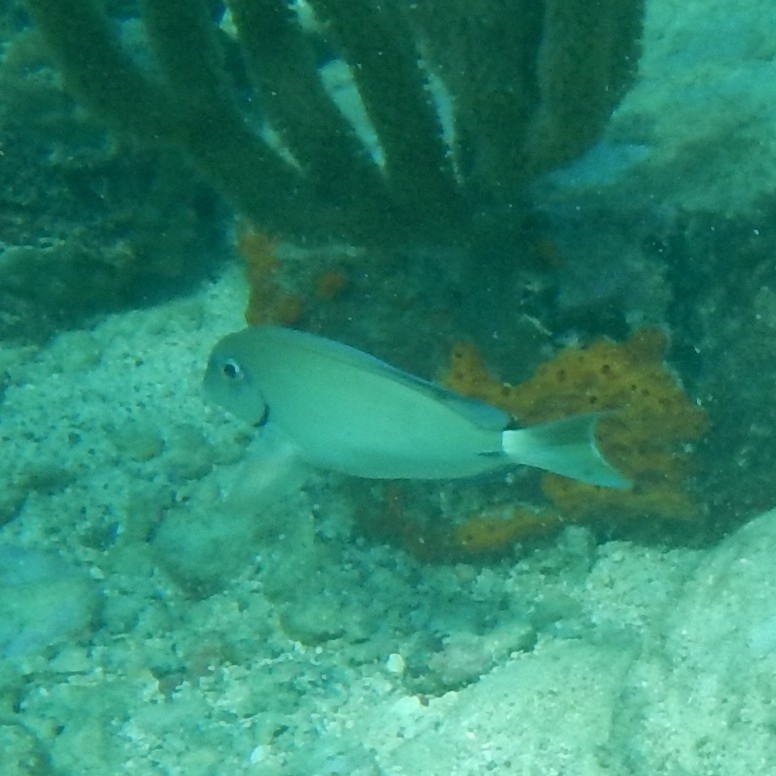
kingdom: Animalia
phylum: Chordata
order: Perciformes
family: Acanthuridae
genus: Acanthurus
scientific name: Acanthurus bahianus
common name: Ocean surgeon
